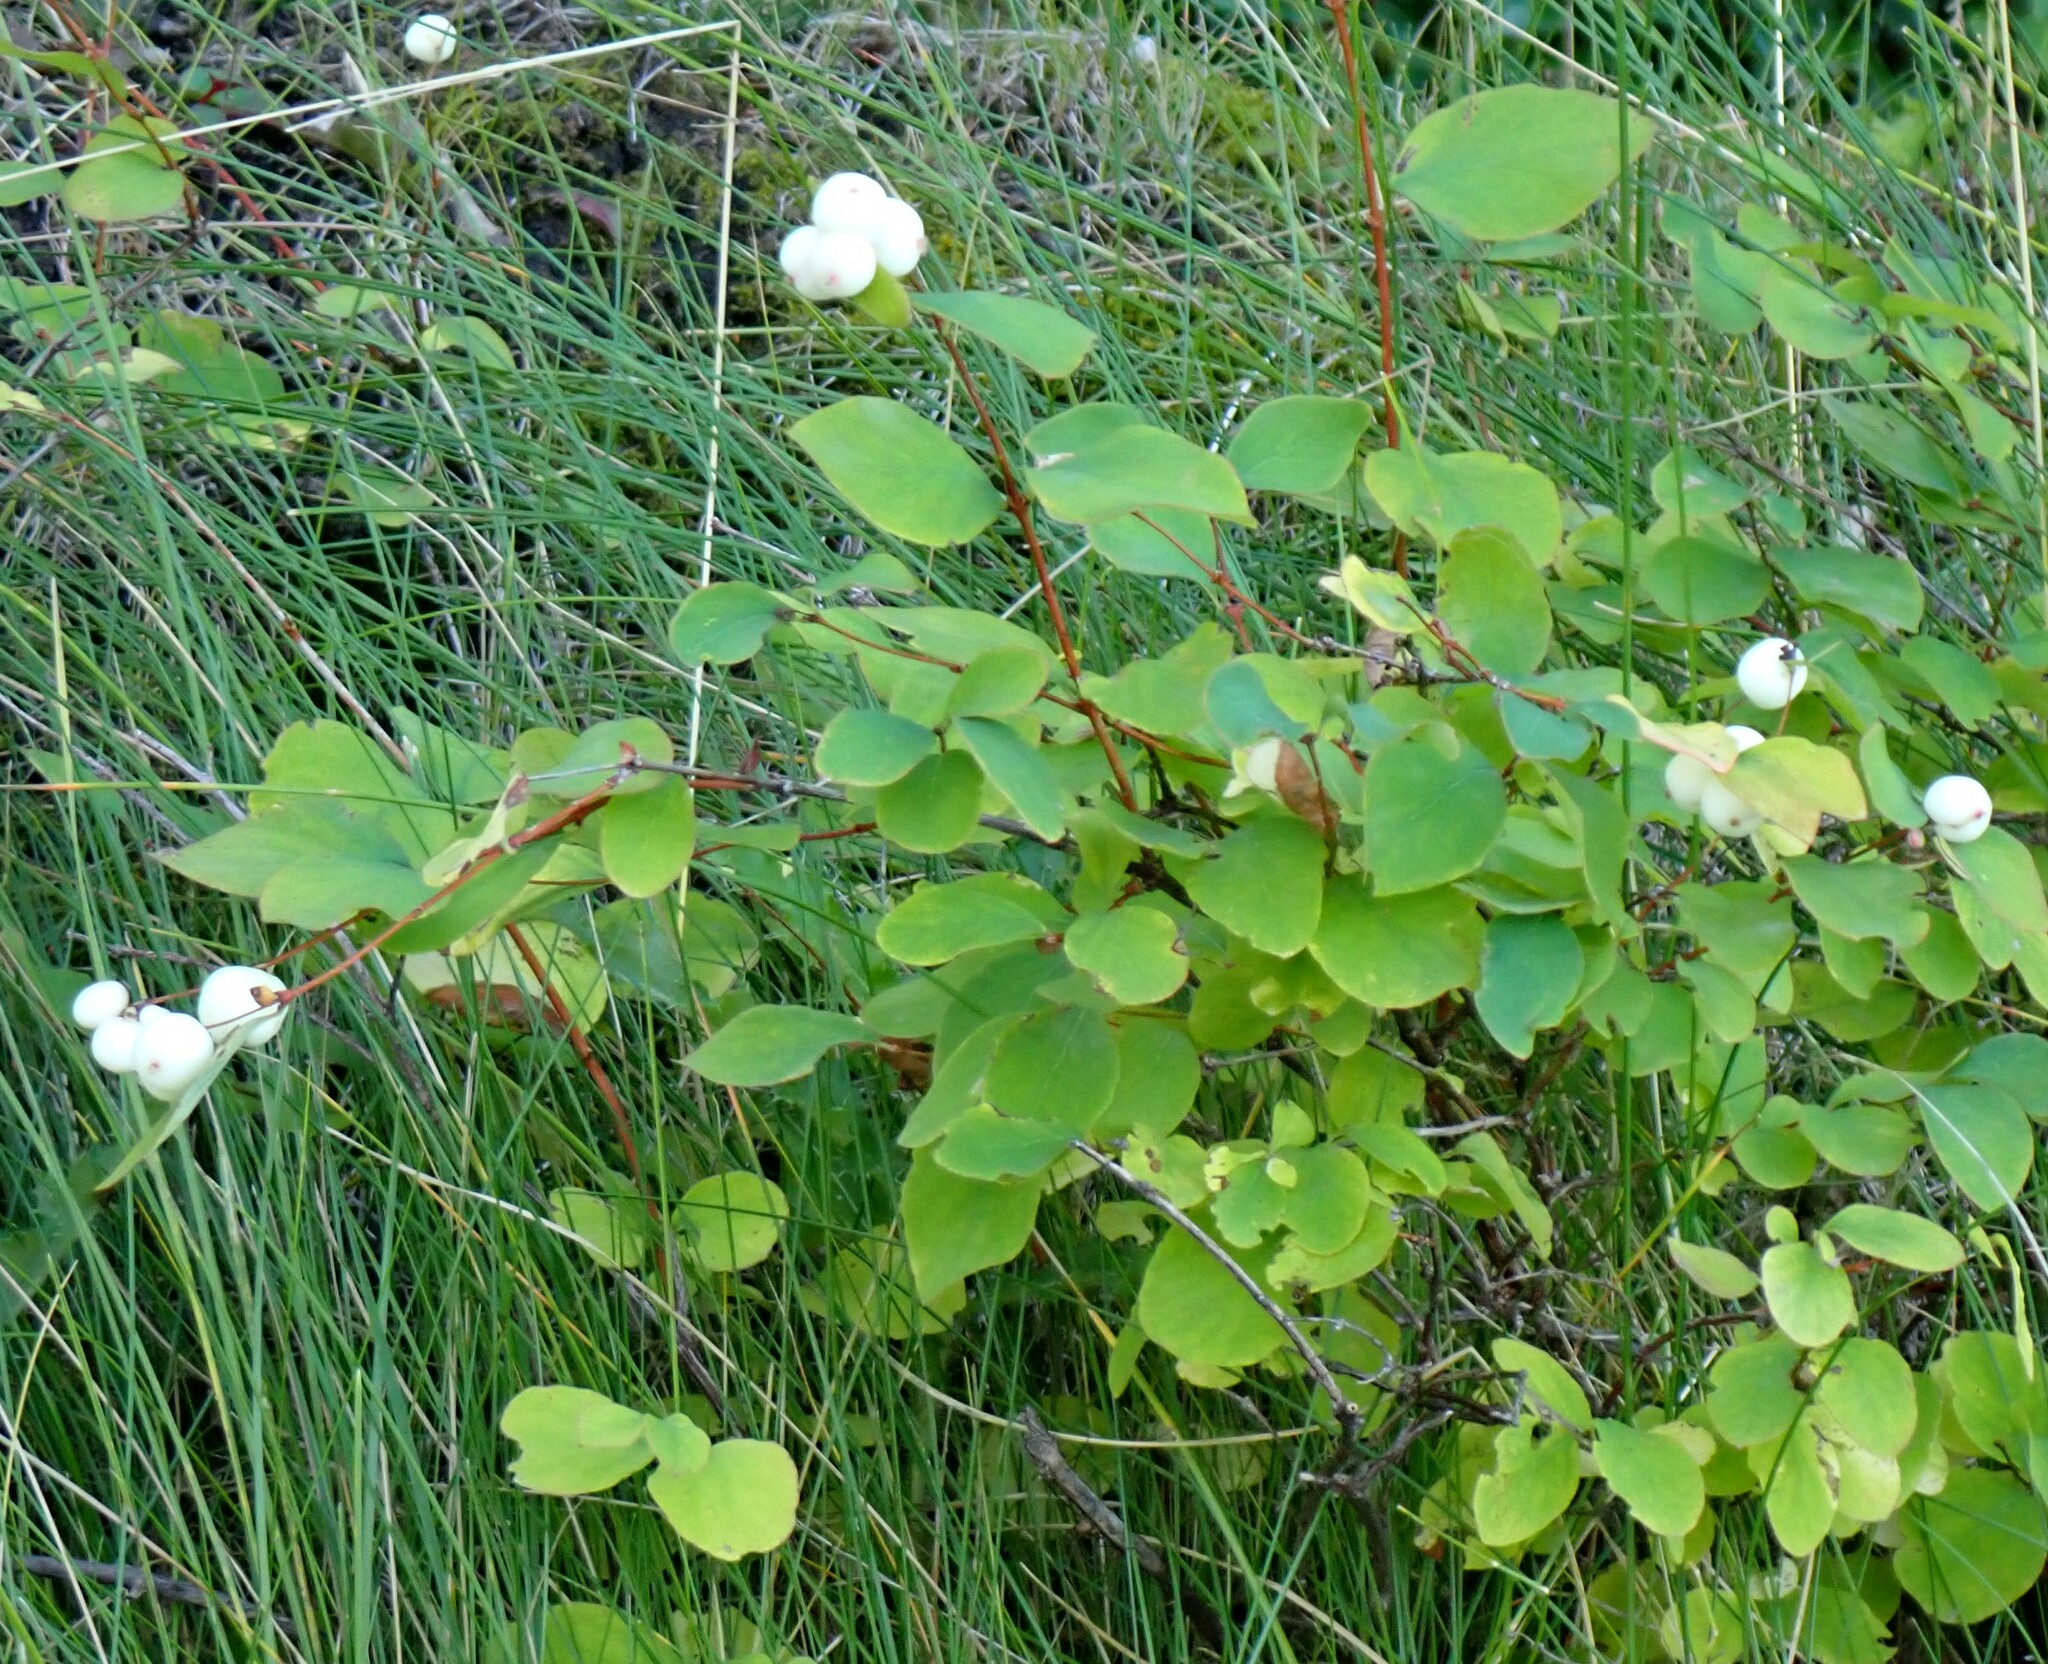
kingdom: Plantae
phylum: Tracheophyta
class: Magnoliopsida
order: Dipsacales
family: Caprifoliaceae
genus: Symphoricarpos
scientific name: Symphoricarpos albus
